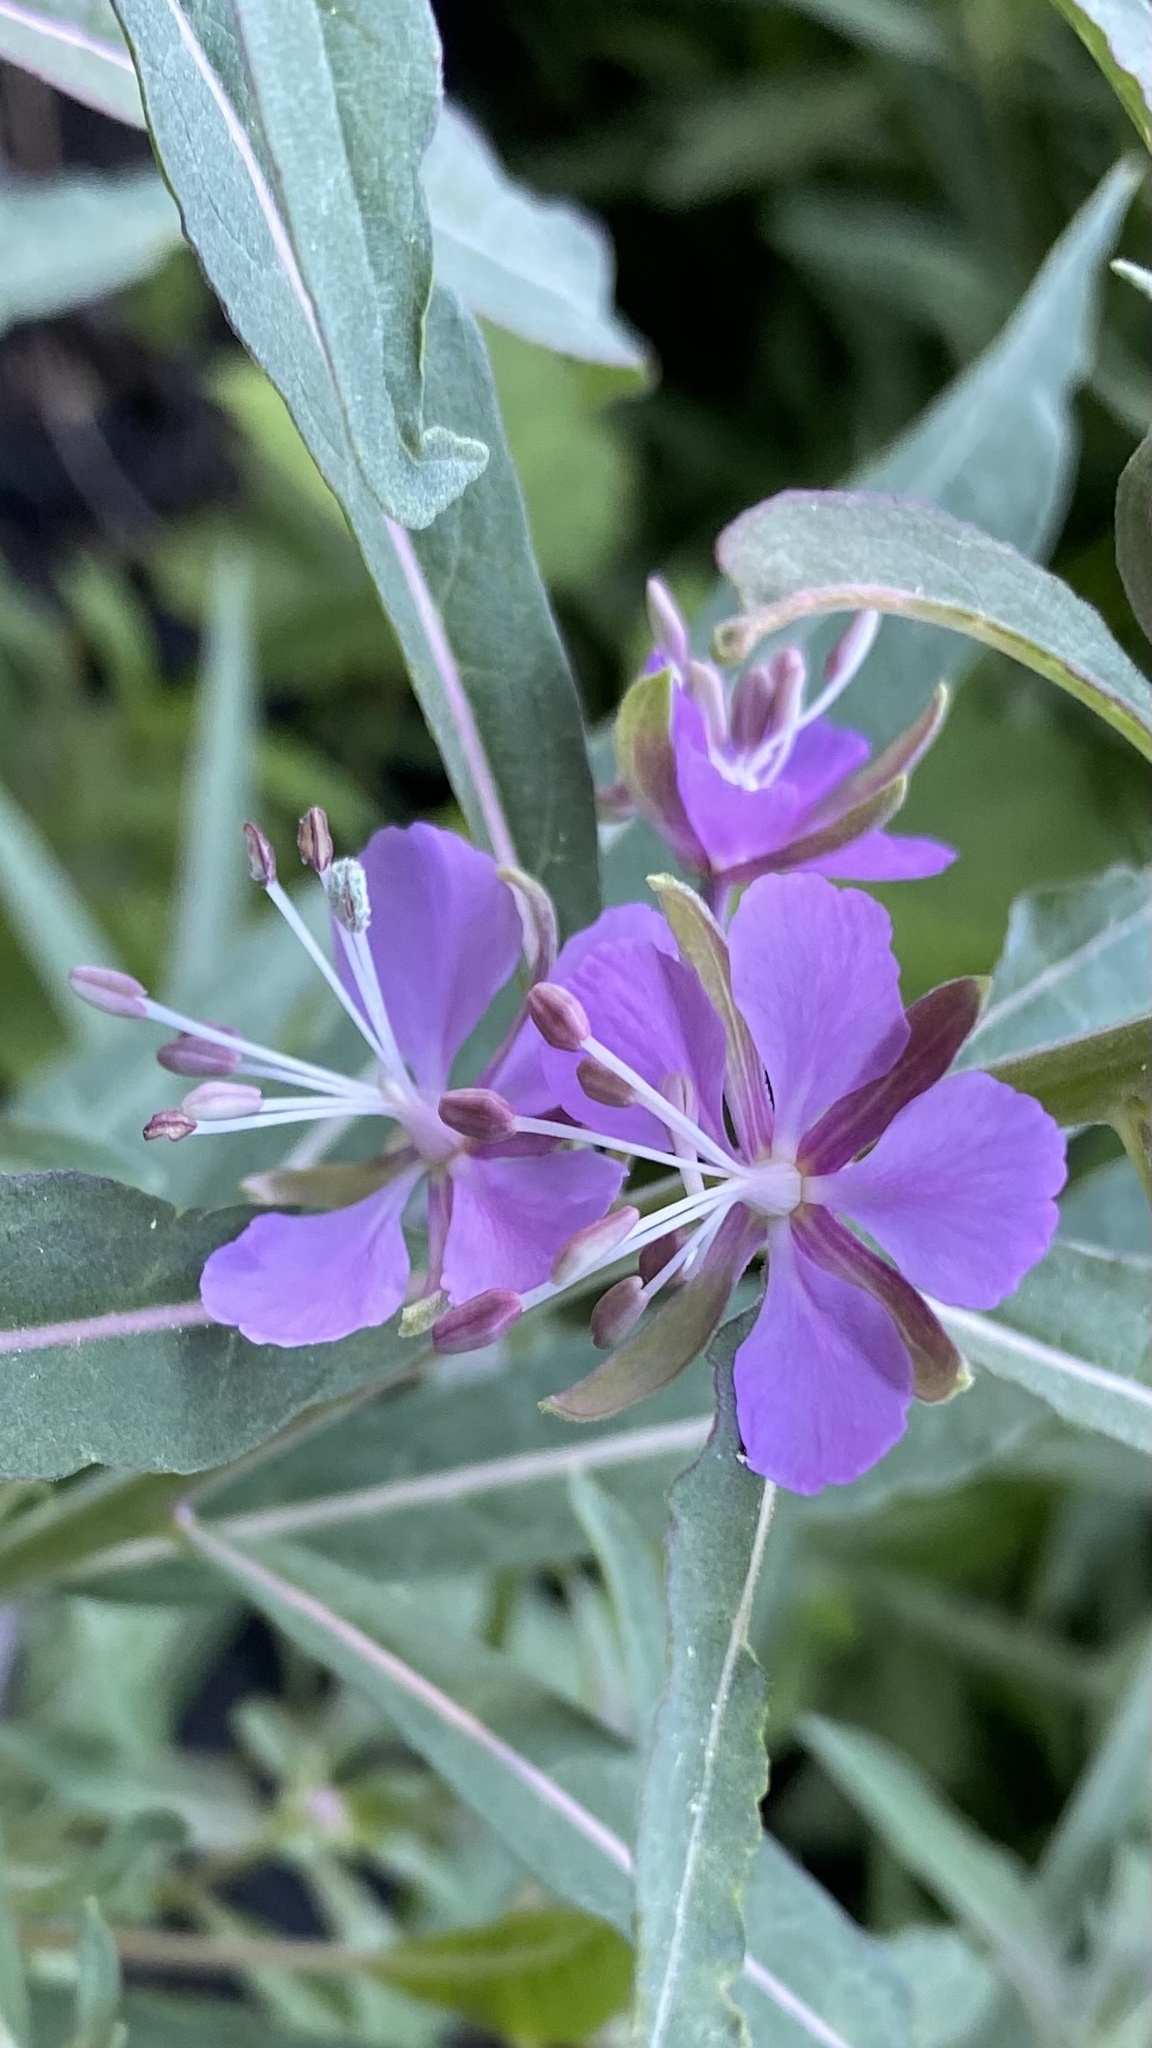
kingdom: Plantae
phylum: Tracheophyta
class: Magnoliopsida
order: Myrtales
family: Onagraceae
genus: Chamaenerion
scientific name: Chamaenerion angustifolium
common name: Fireweed
